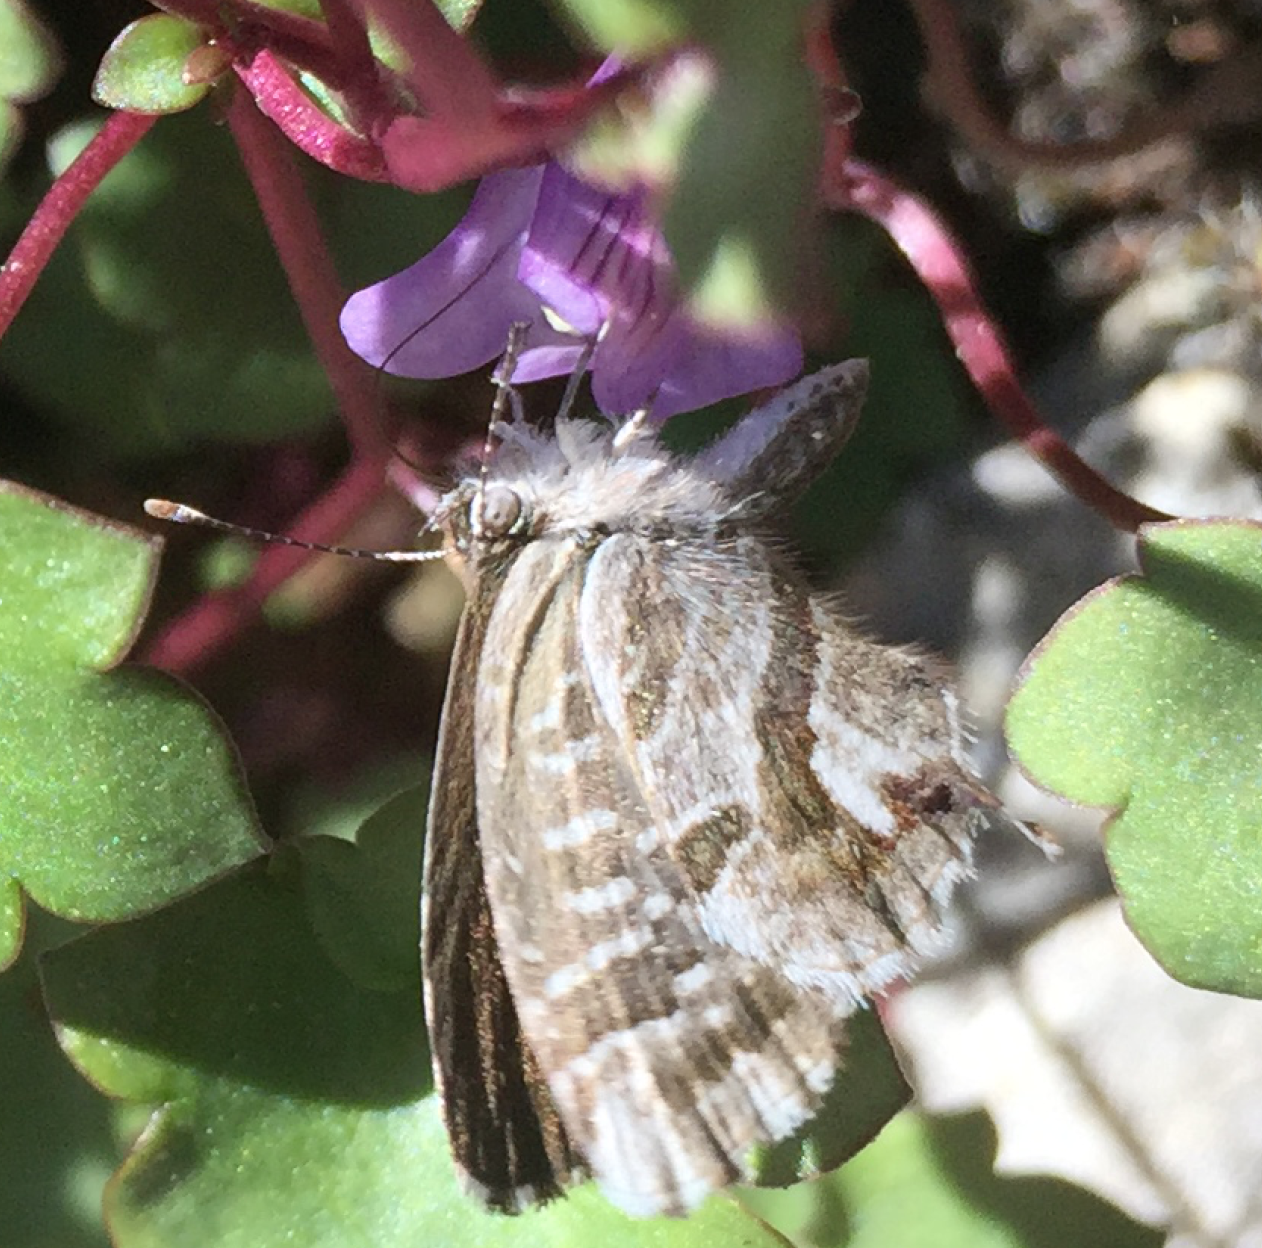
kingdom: Animalia
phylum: Arthropoda
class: Insecta
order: Lepidoptera
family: Lycaenidae
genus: Cacyreus
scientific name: Cacyreus marshalli
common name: Geranium bronze
